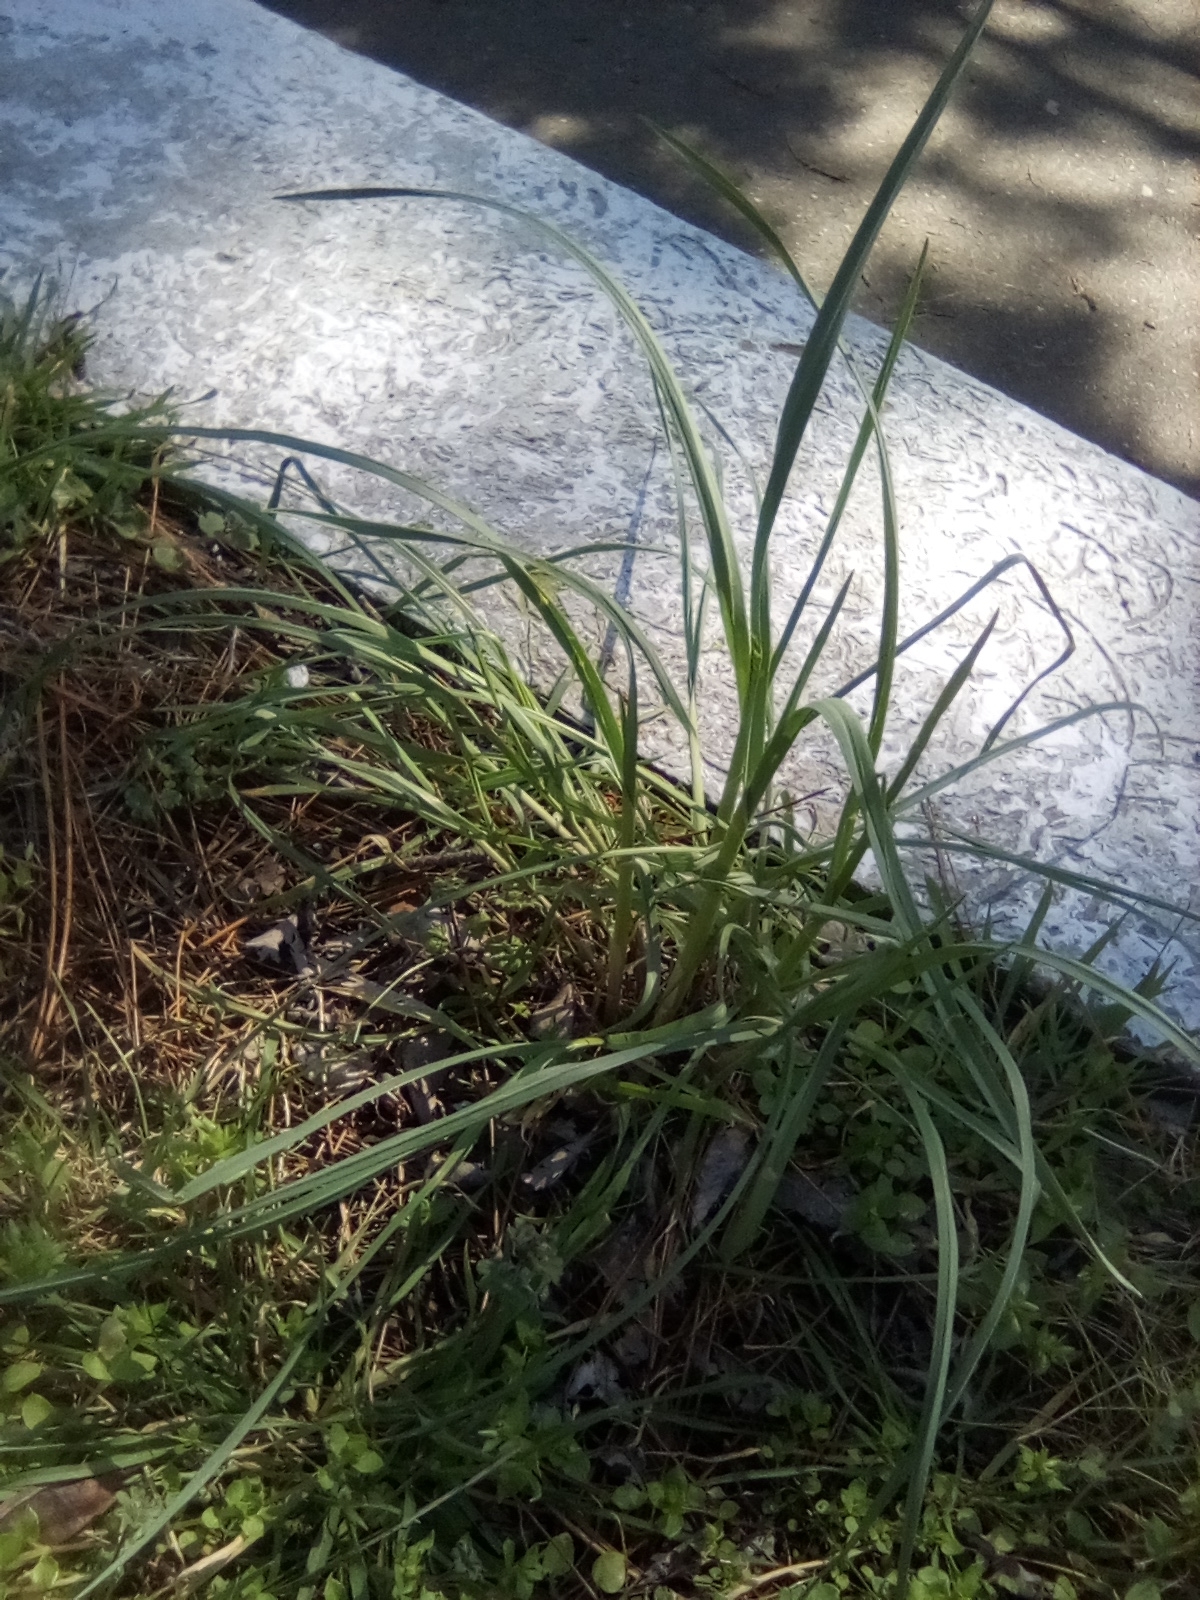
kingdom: Plantae
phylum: Tracheophyta
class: Liliopsida
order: Poales
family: Poaceae
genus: Dactylis
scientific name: Dactylis glomerata
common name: Orchardgrass
